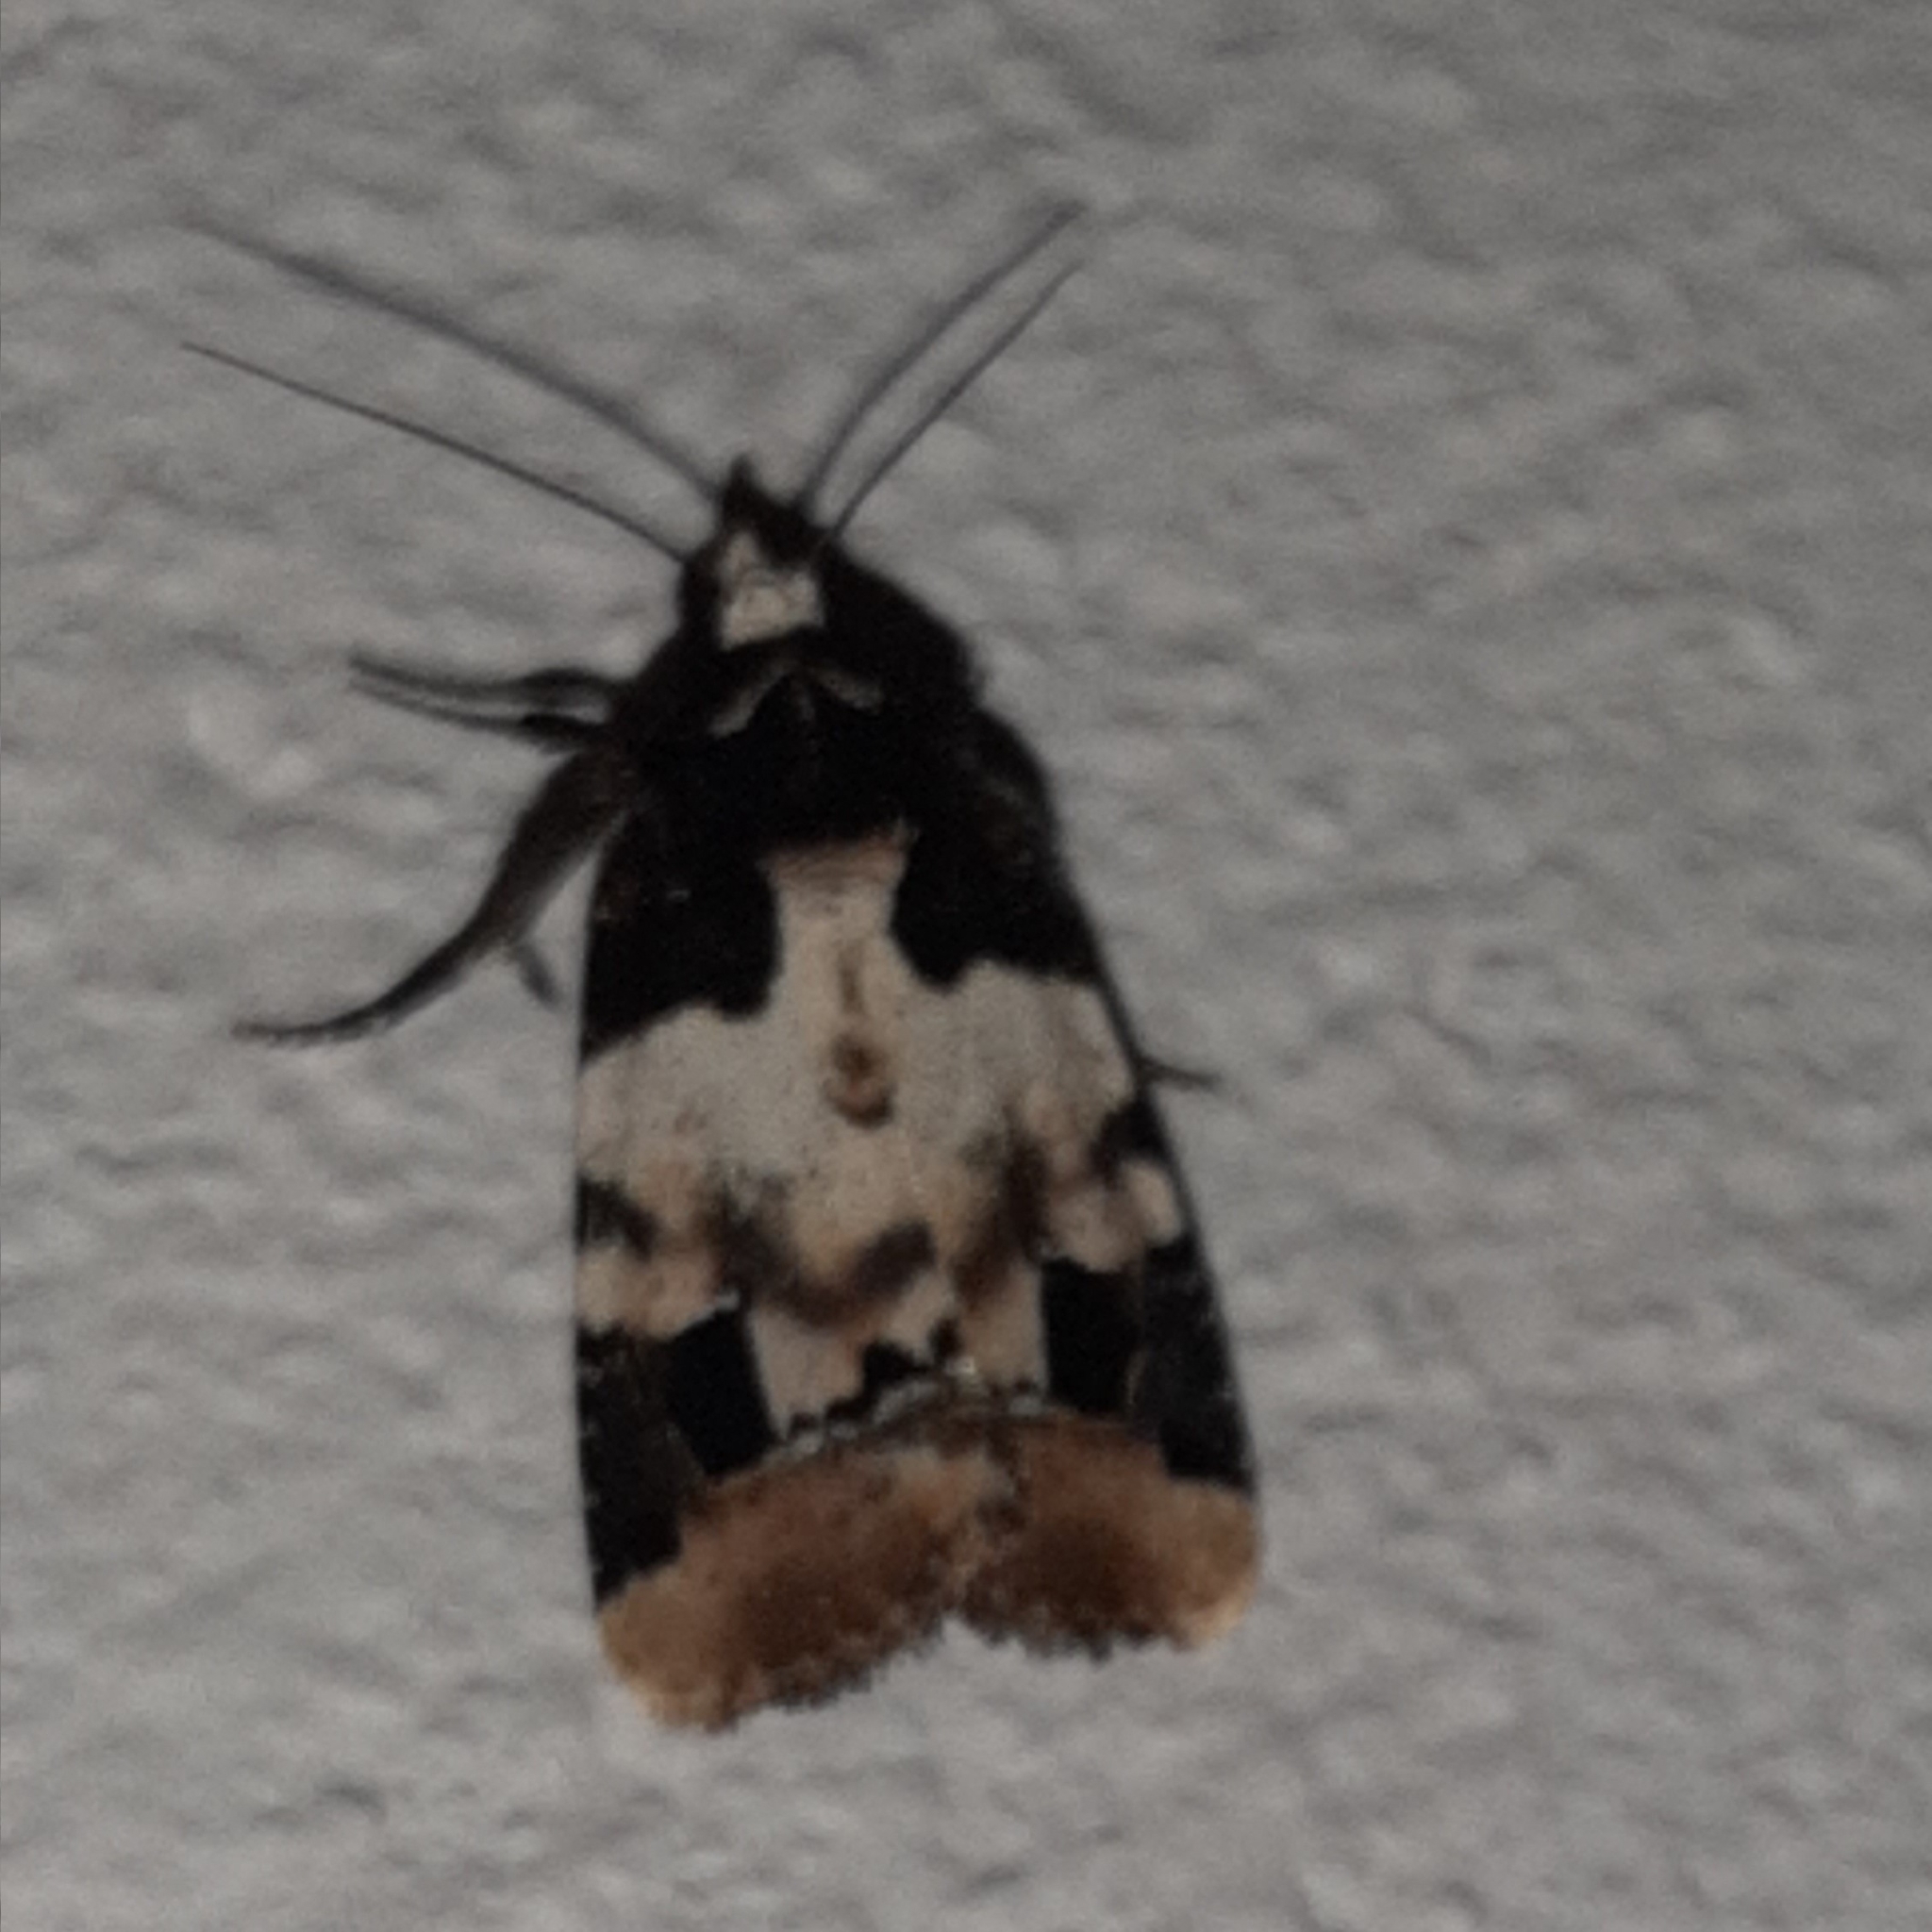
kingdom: Animalia
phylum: Arthropoda
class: Insecta
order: Lepidoptera
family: Noctuidae
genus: Bryolymnia
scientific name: Bryolymnia bicon
